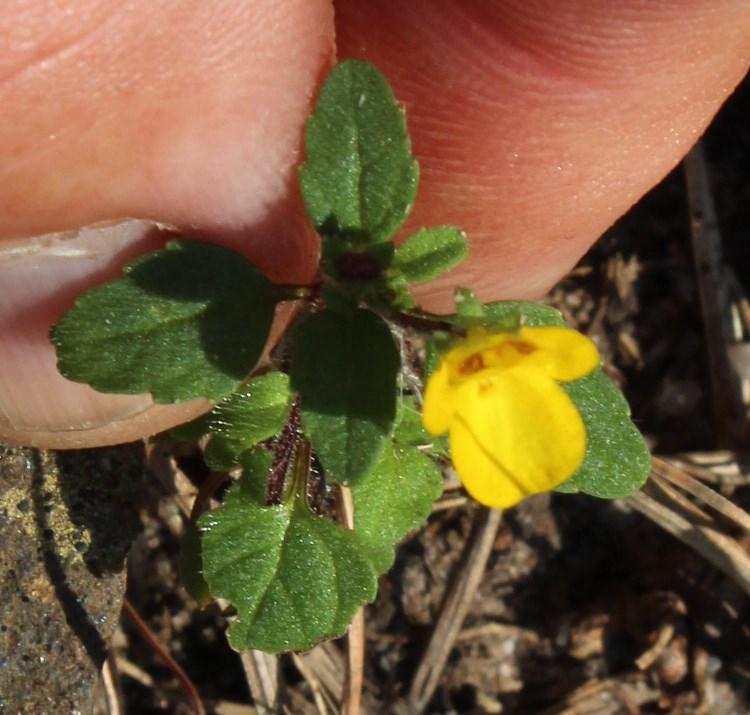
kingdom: Plantae
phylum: Tracheophyta
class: Magnoliopsida
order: Lamiales
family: Scrophulariaceae
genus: Hemimeris
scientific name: Hemimeris racemosa
